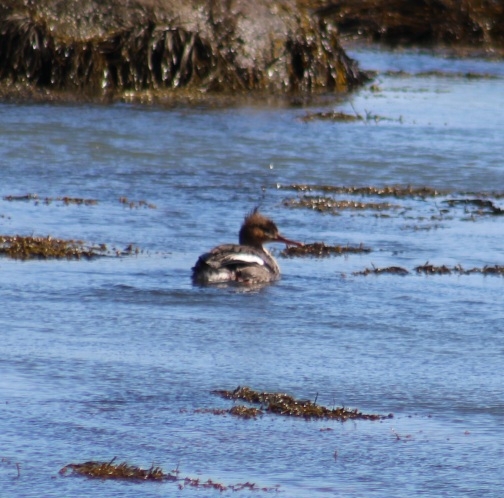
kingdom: Animalia
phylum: Chordata
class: Aves
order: Anseriformes
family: Anatidae
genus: Mergus
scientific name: Mergus serrator
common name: Red-breasted merganser
